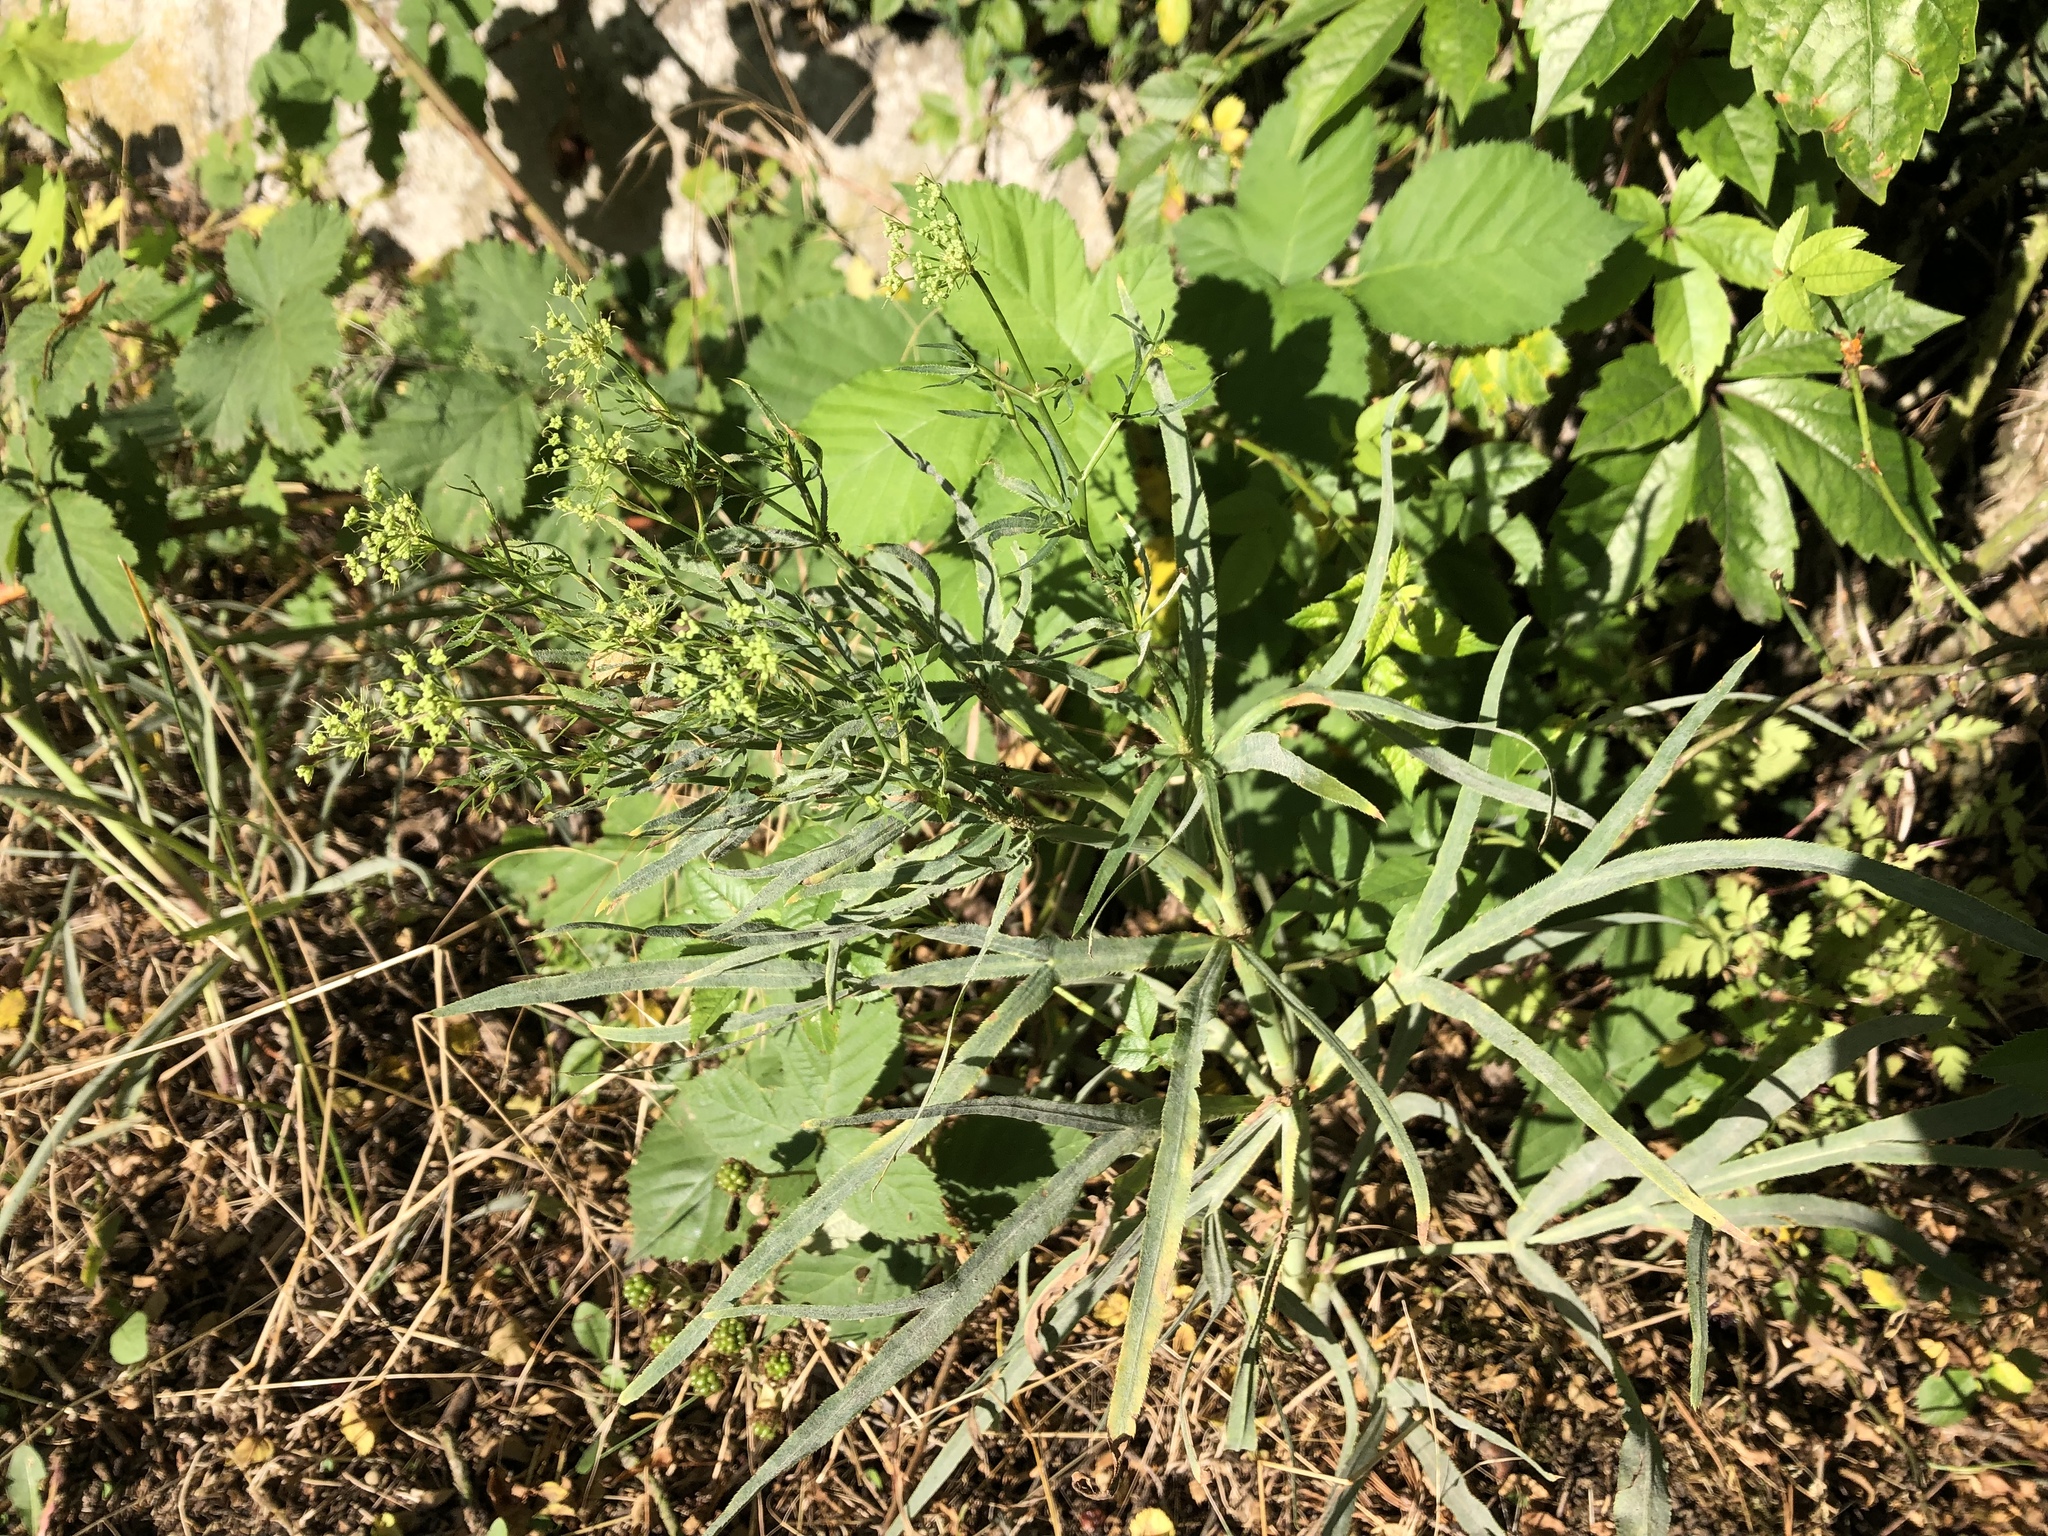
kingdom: Plantae
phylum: Tracheophyta
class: Magnoliopsida
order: Apiales
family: Apiaceae
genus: Falcaria
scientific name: Falcaria vulgaris
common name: Longleaf
